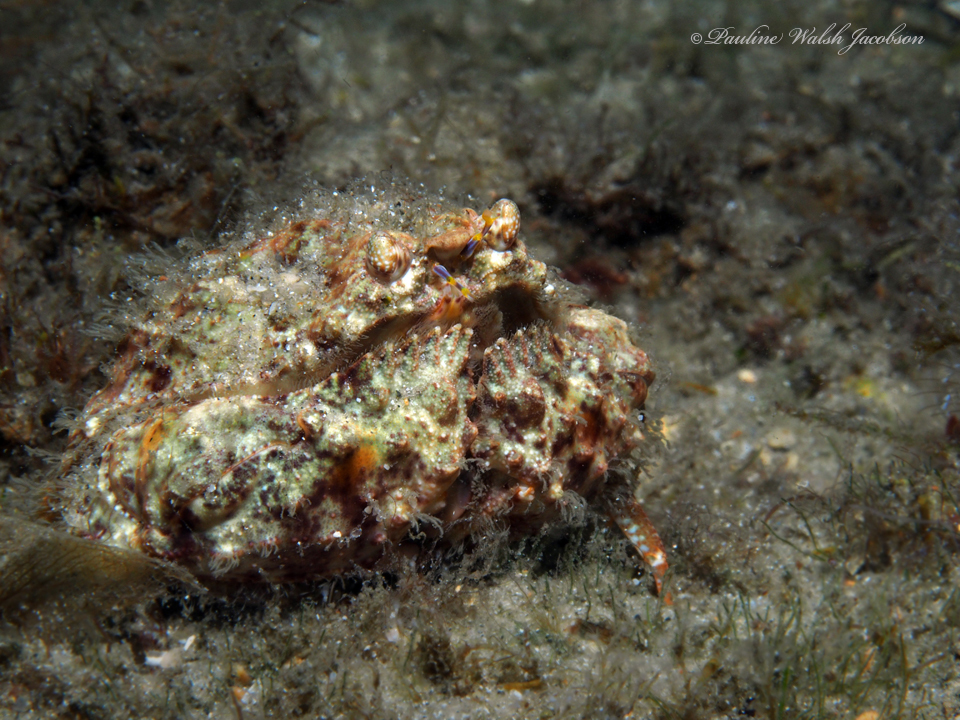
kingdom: Animalia
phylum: Arthropoda
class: Malacostraca
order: Decapoda
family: Calappidae
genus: Calappa
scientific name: Calappa galloides
